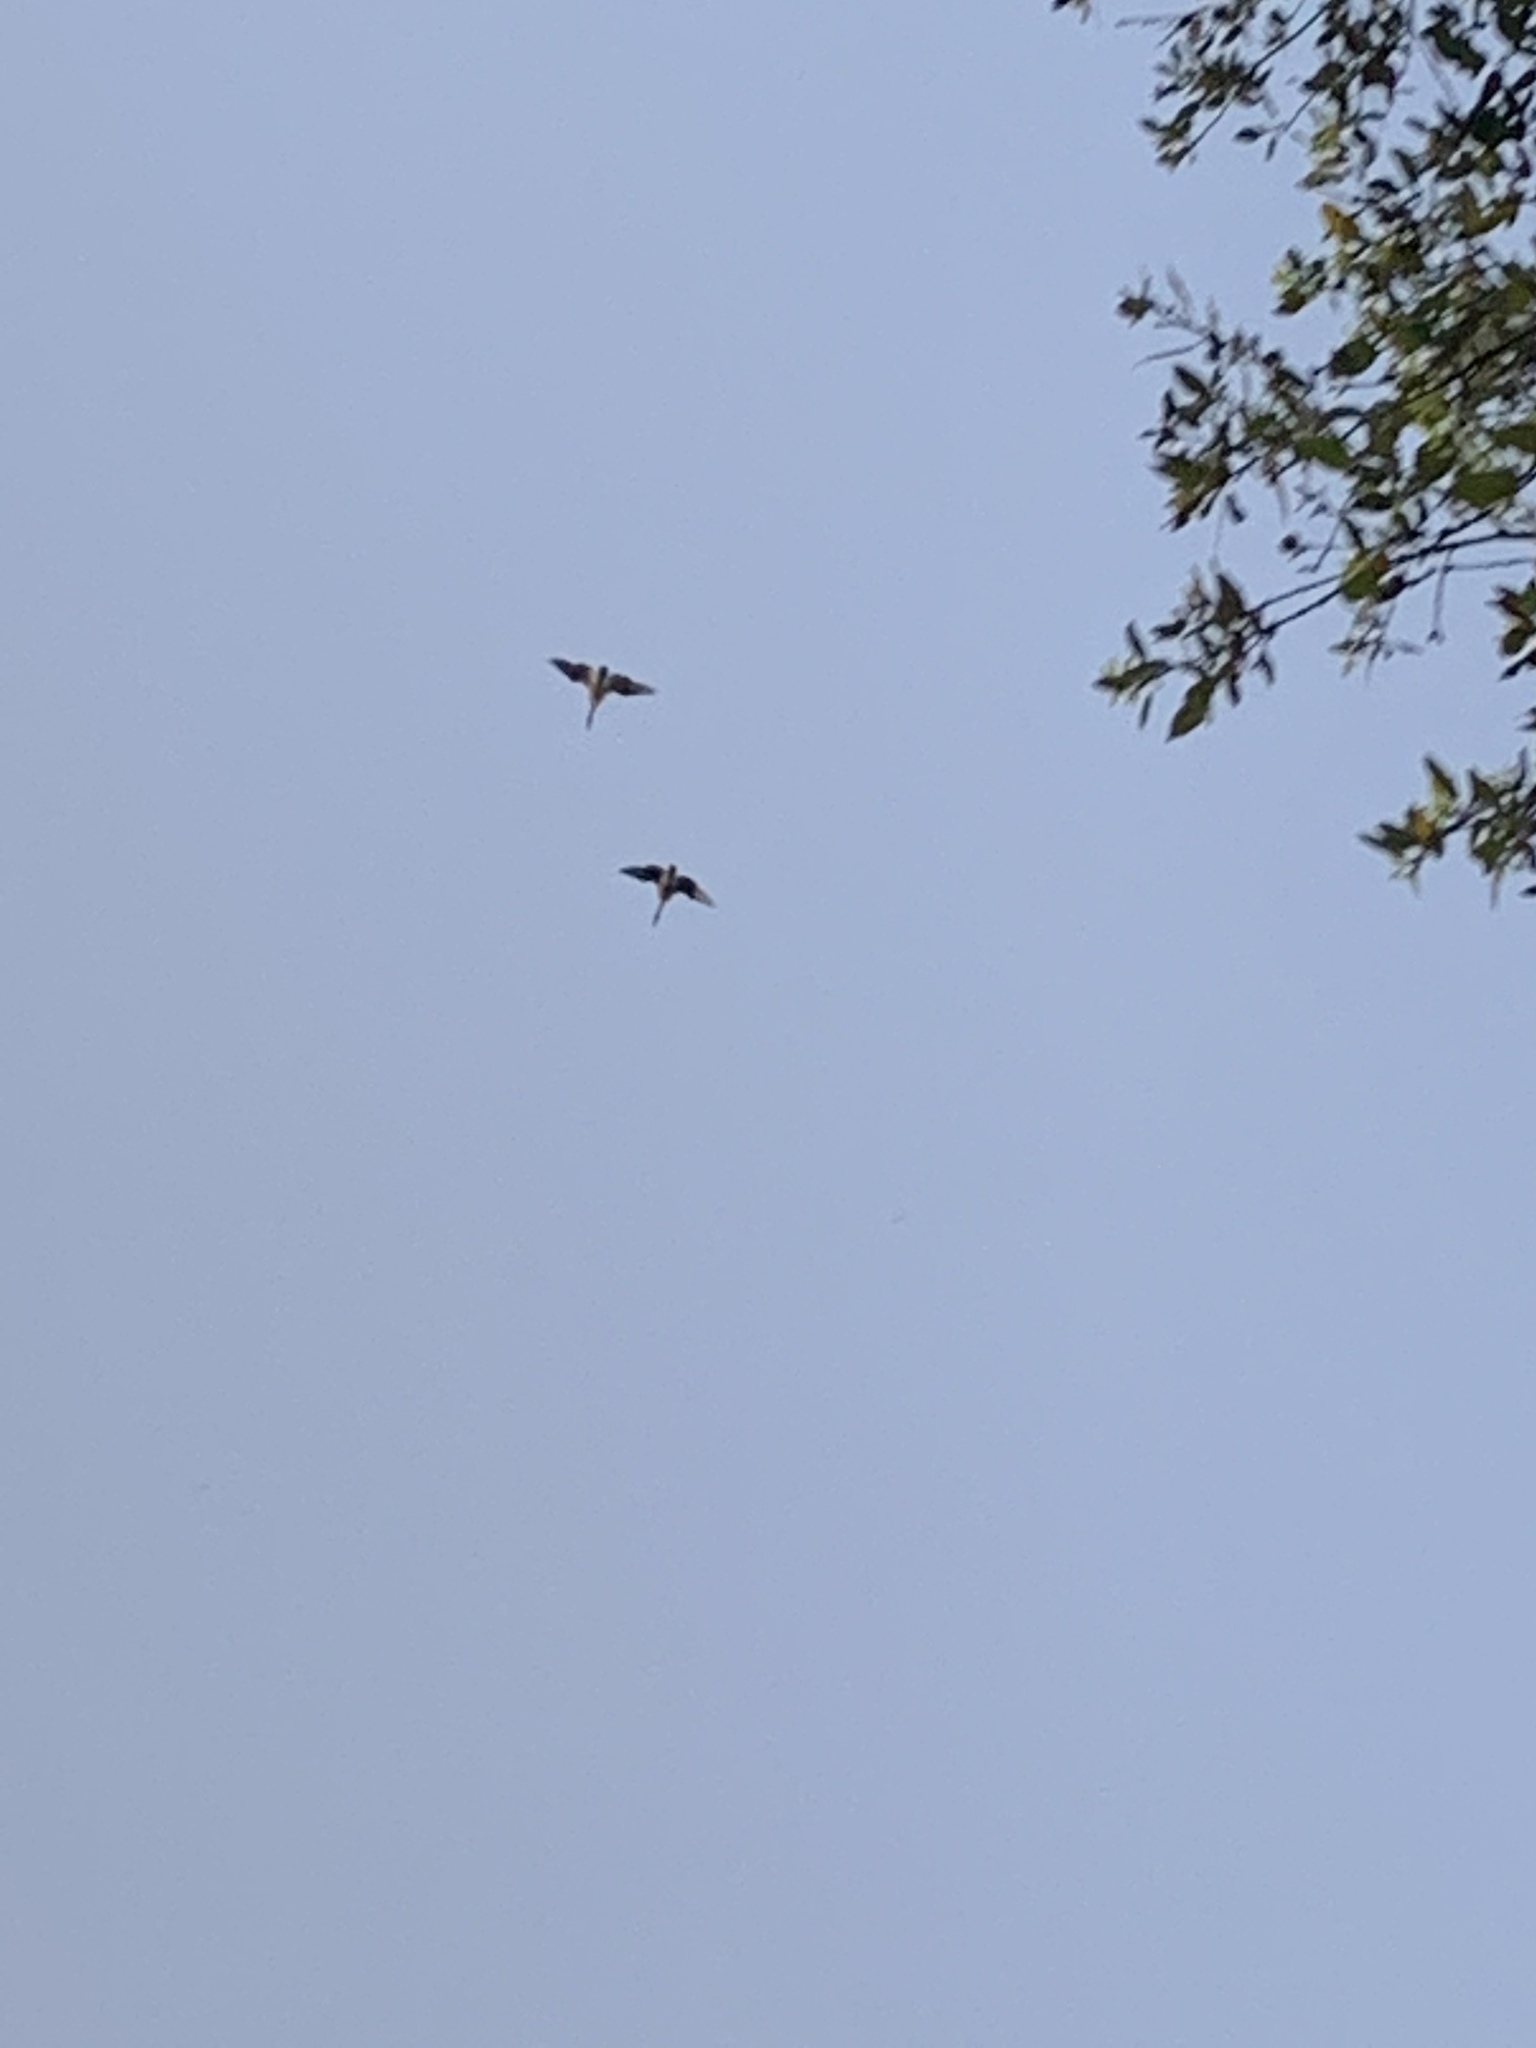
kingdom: Animalia
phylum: Chordata
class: Aves
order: Anseriformes
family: Anatidae
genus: Branta
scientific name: Branta canadensis
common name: Canada goose
